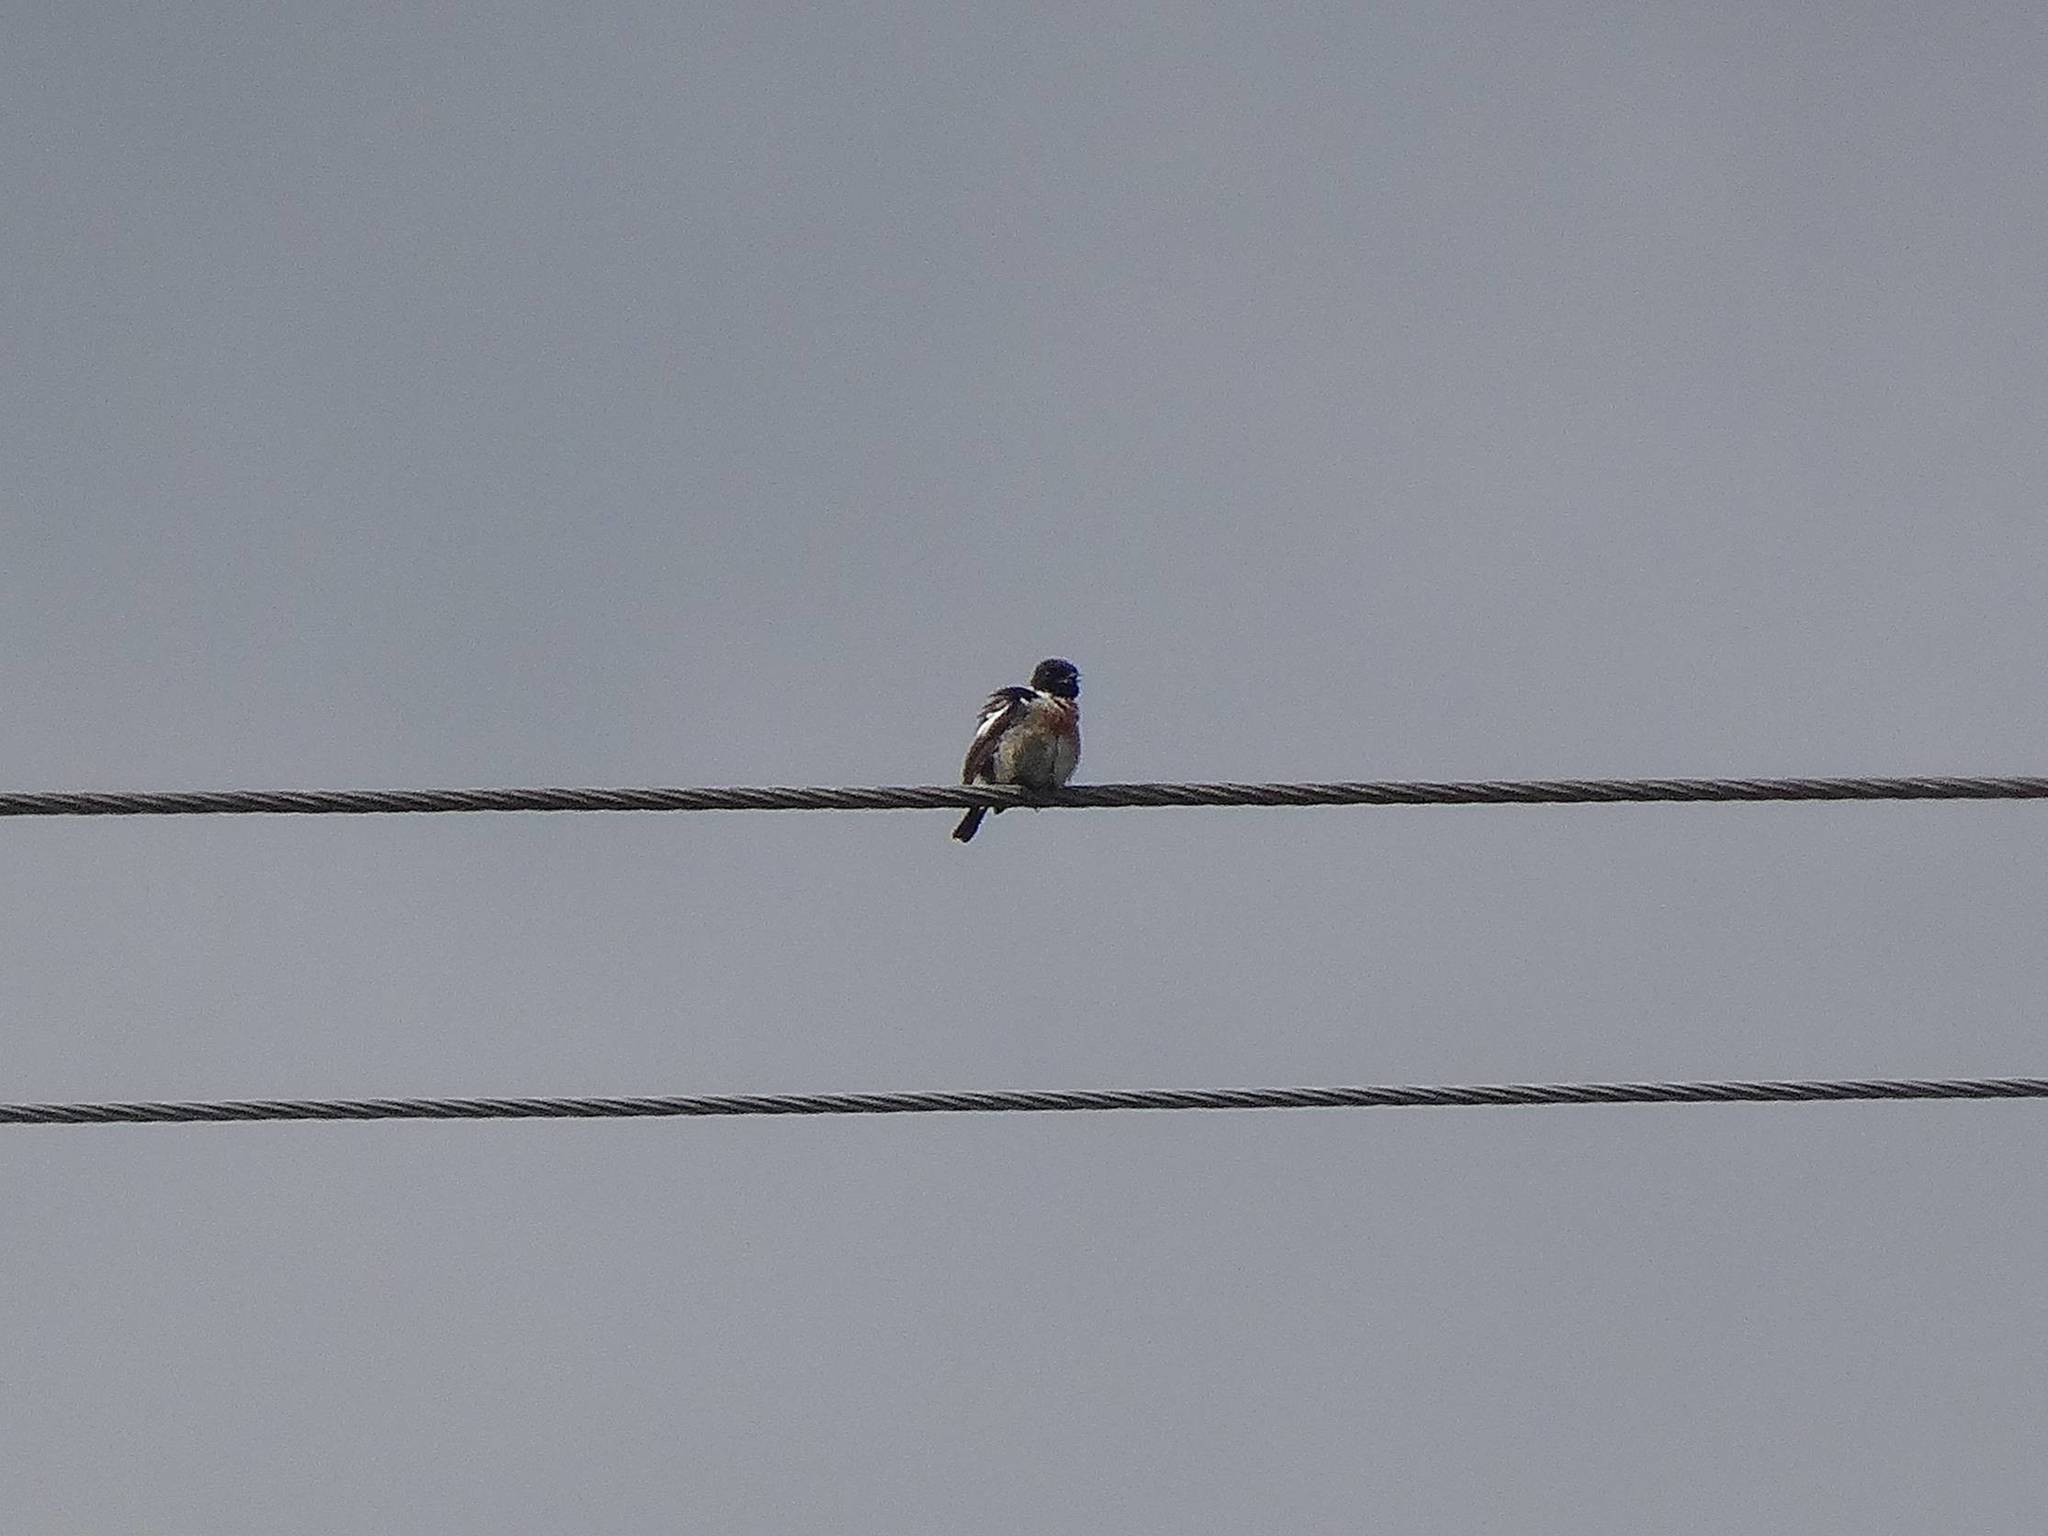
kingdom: Animalia
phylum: Chordata
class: Aves
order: Passeriformes
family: Muscicapidae
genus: Saxicola
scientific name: Saxicola rubicola
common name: European stonechat
